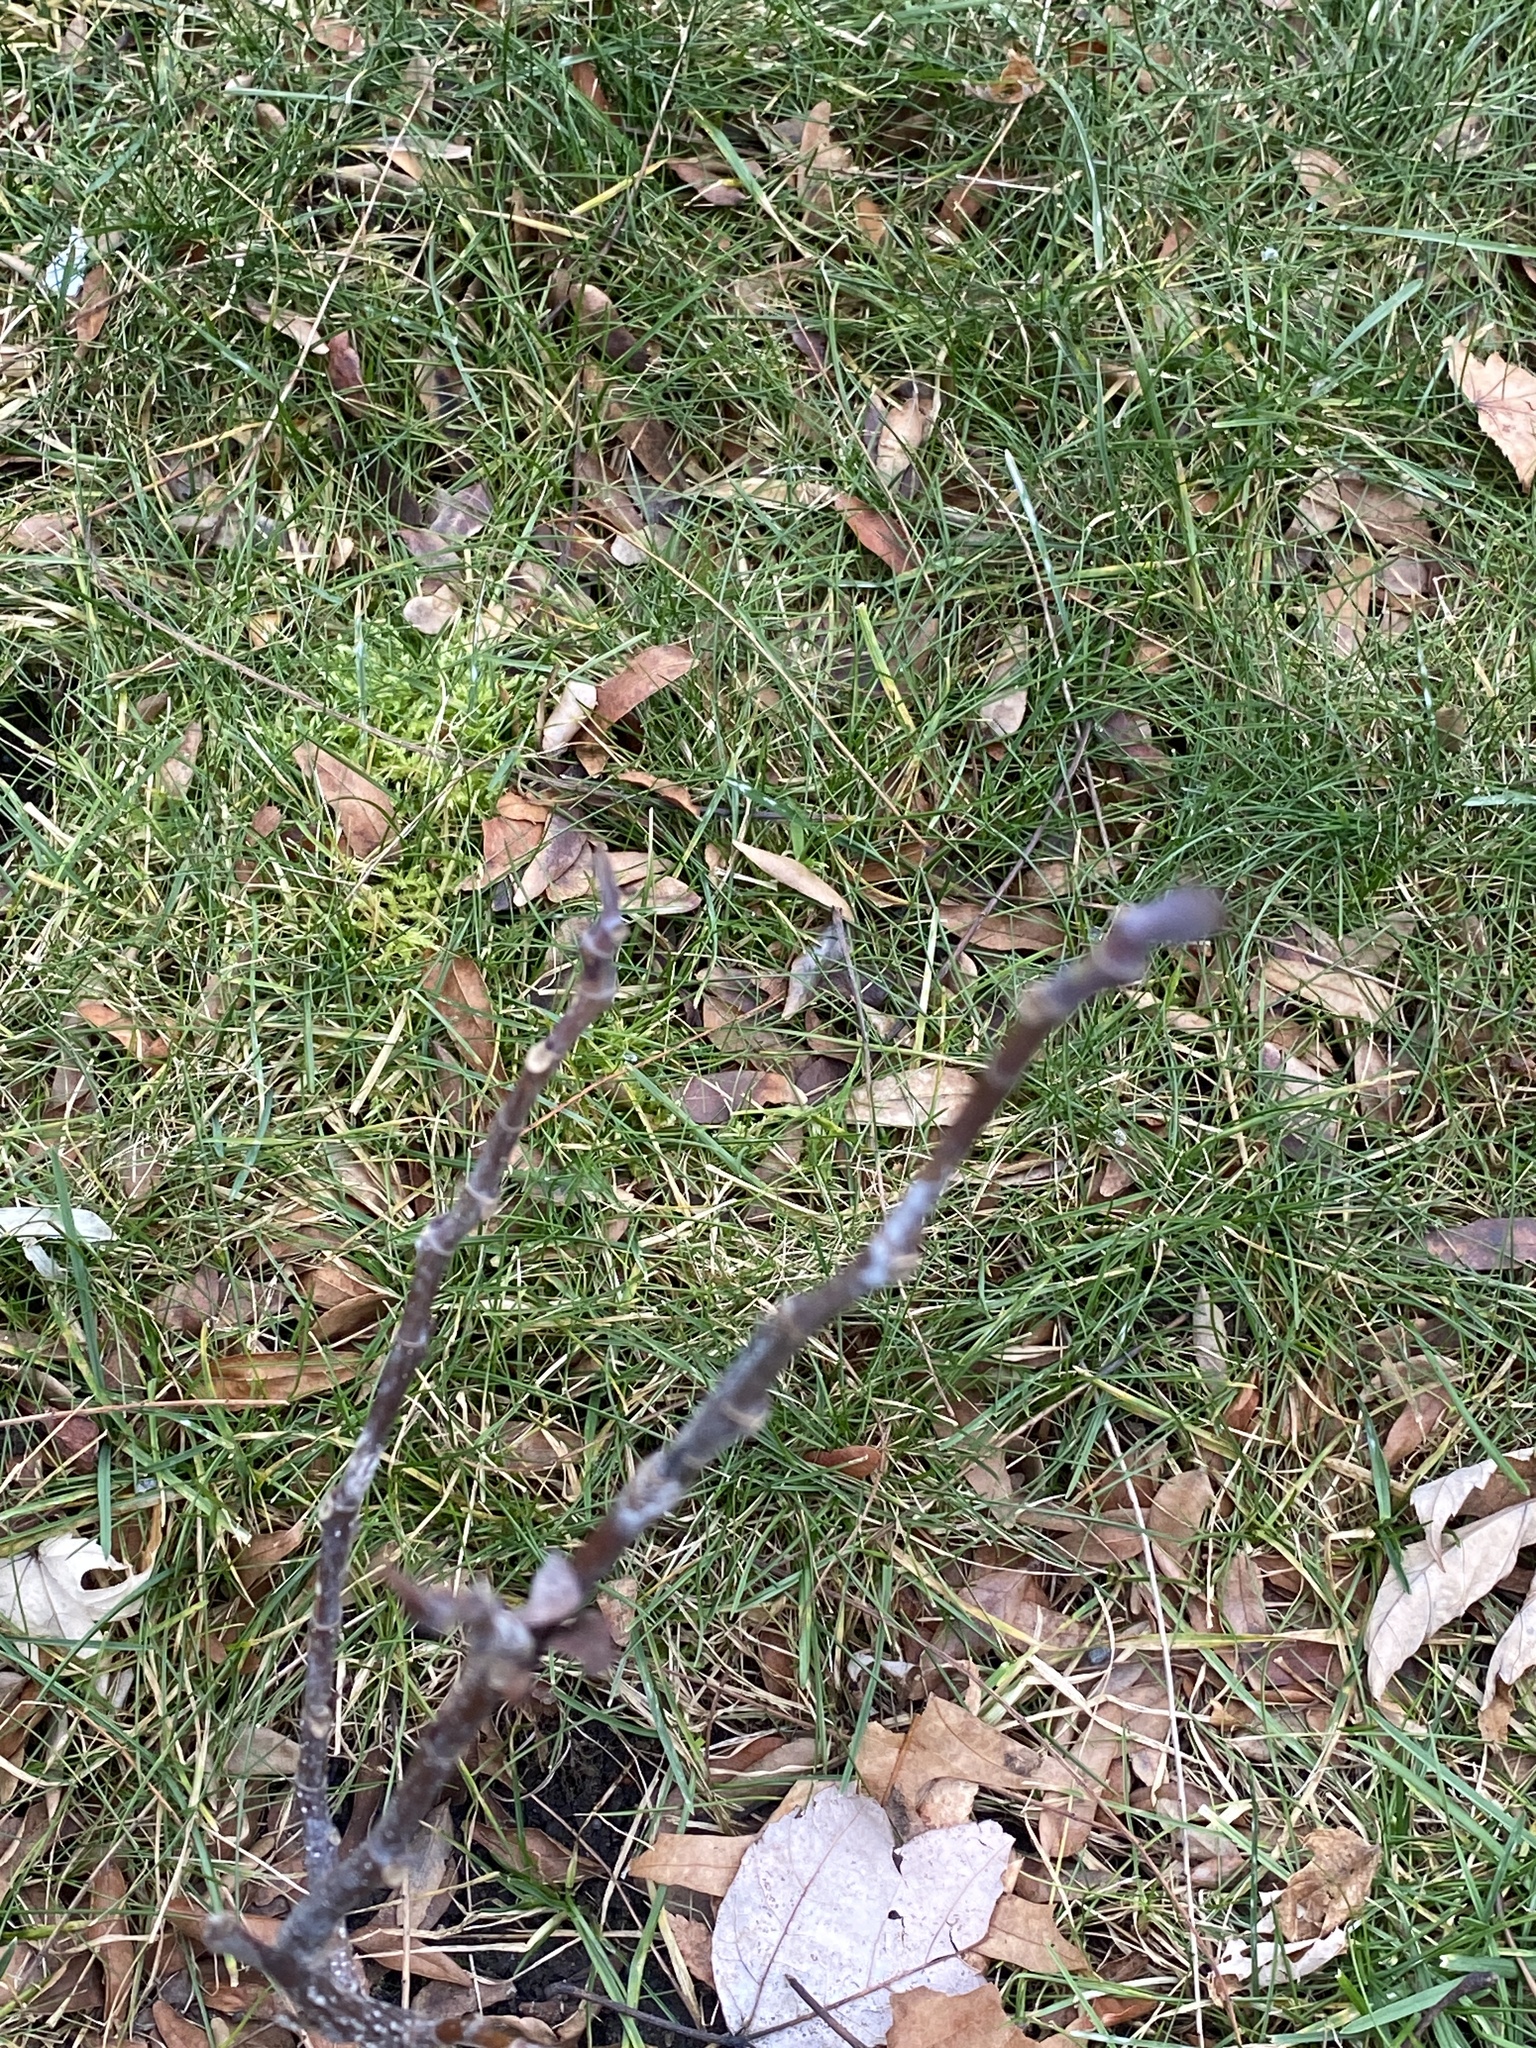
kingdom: Plantae
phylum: Tracheophyta
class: Magnoliopsida
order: Magnoliales
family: Magnoliaceae
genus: Liriodendron
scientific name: Liriodendron tulipifera
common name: Tulip tree
